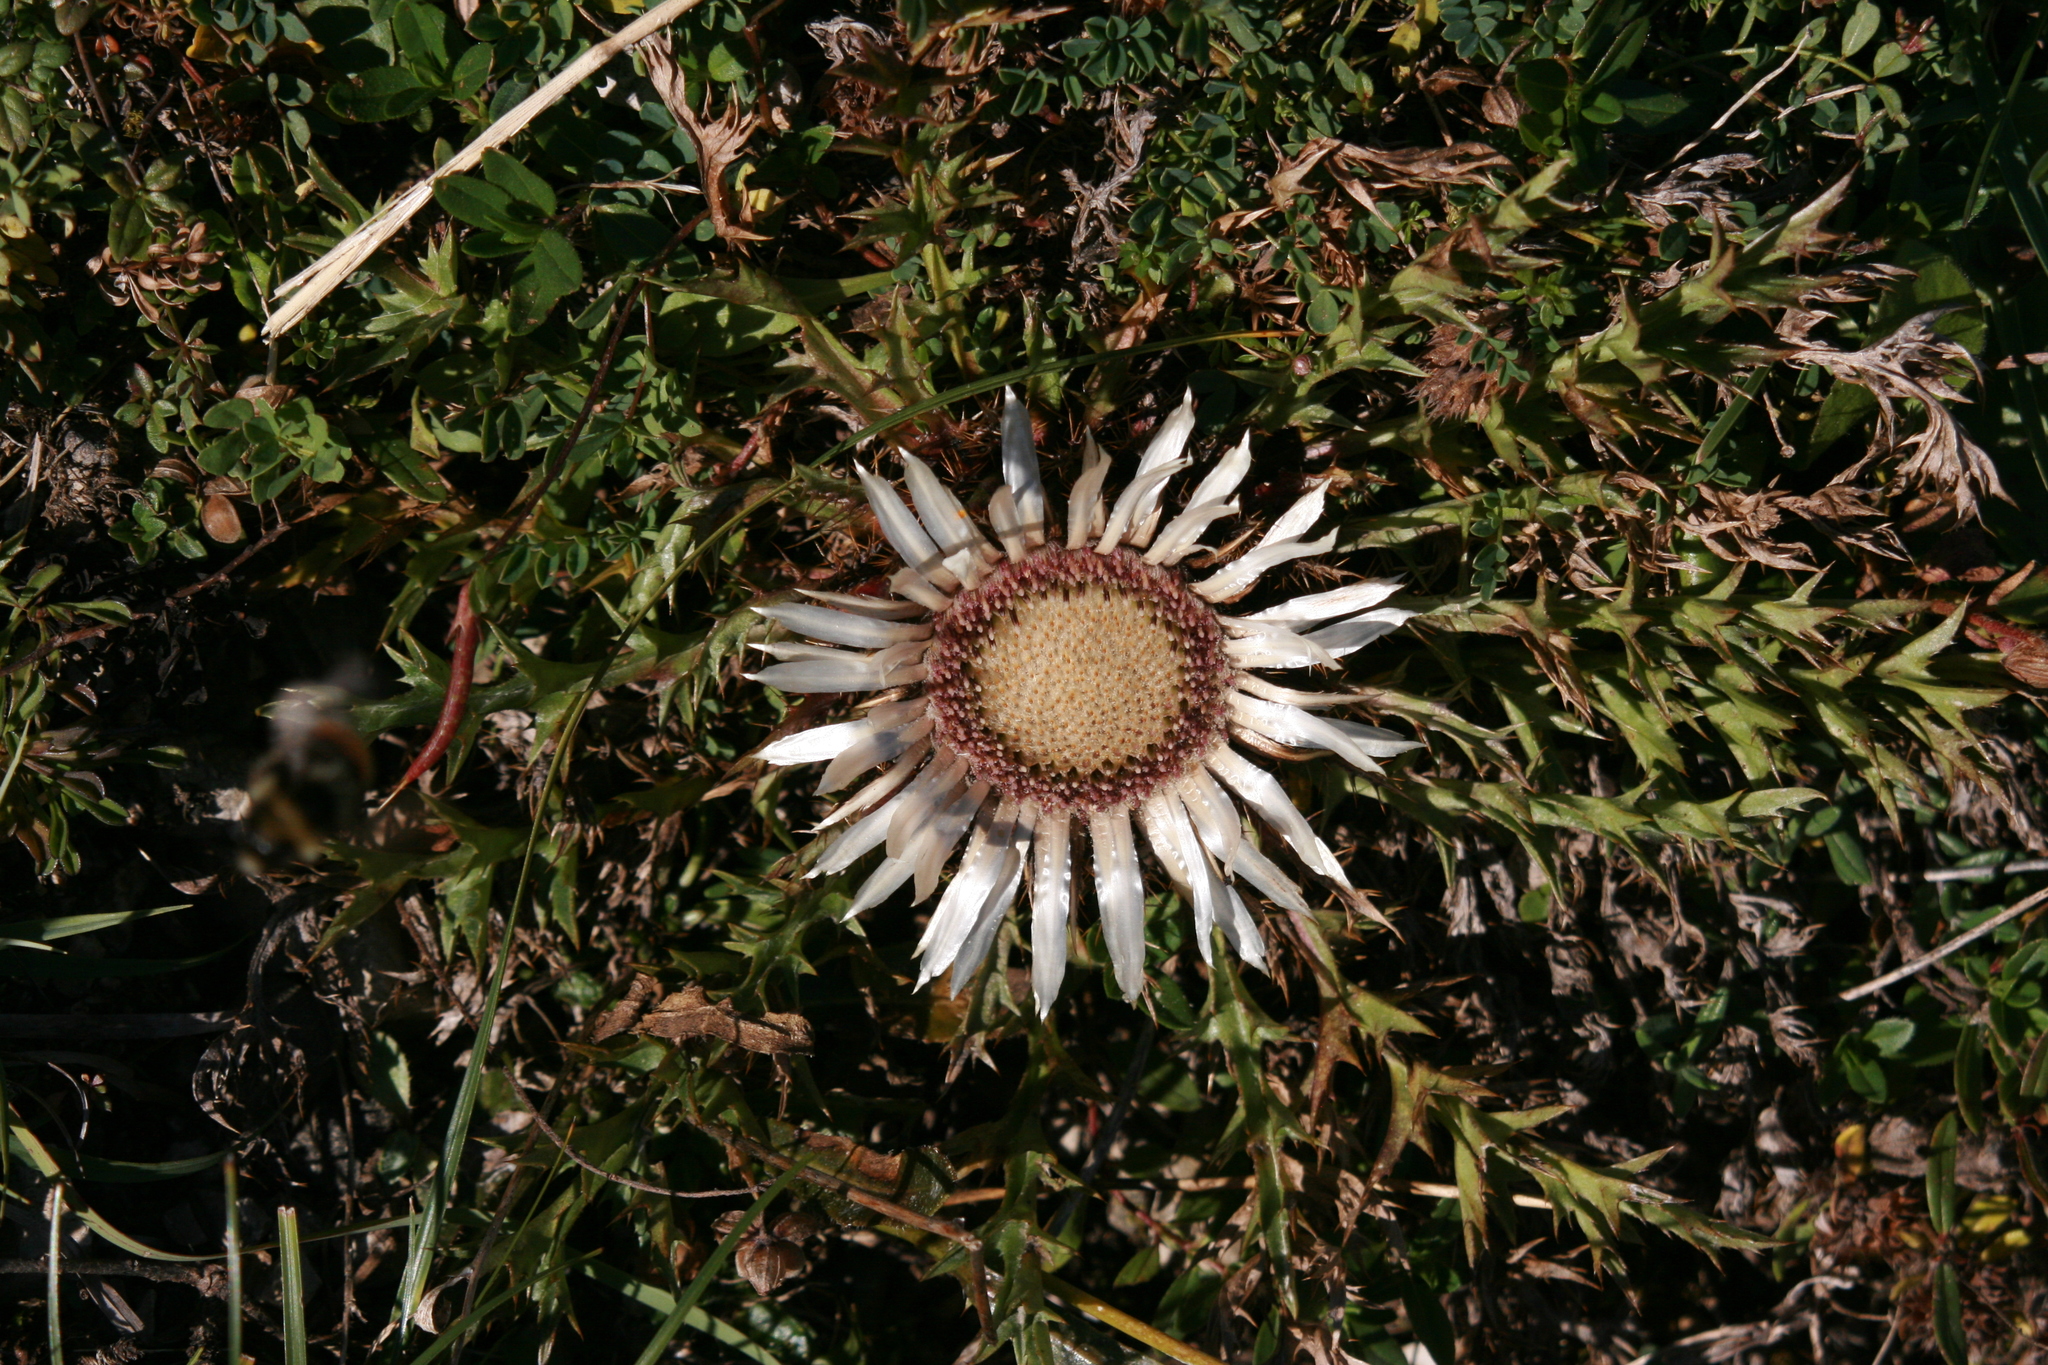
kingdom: Plantae
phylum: Tracheophyta
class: Magnoliopsida
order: Asterales
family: Asteraceae
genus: Carlina
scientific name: Carlina acaulis
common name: Stemless carline thistle
